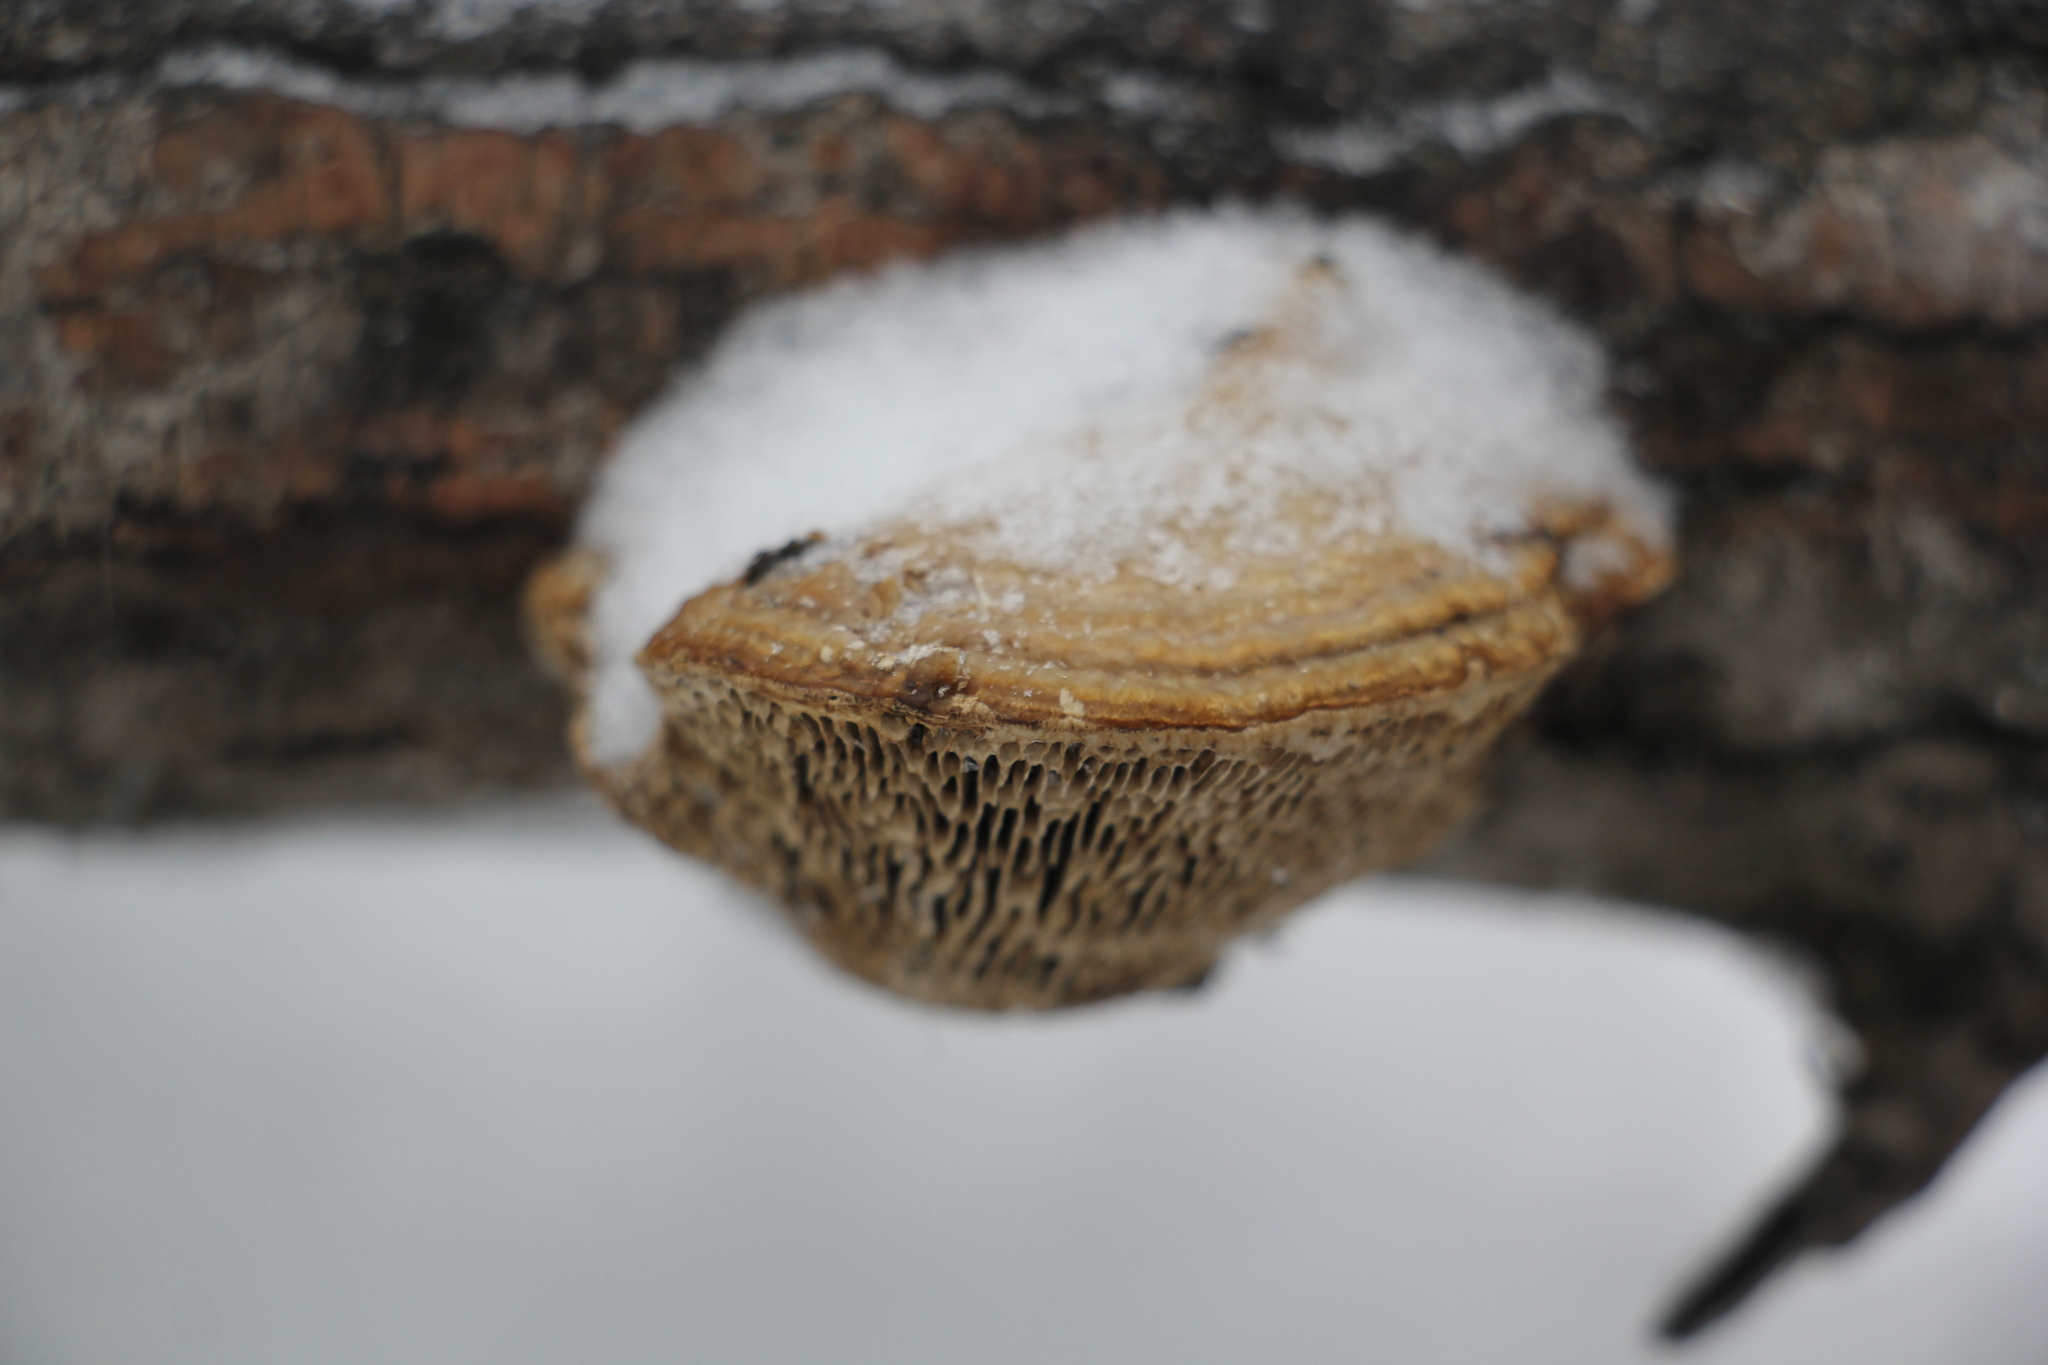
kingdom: Fungi
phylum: Basidiomycota
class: Agaricomycetes
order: Polyporales
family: Polyporaceae
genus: Daedaleopsis
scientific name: Daedaleopsis confragosa
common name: Blushing bracket
